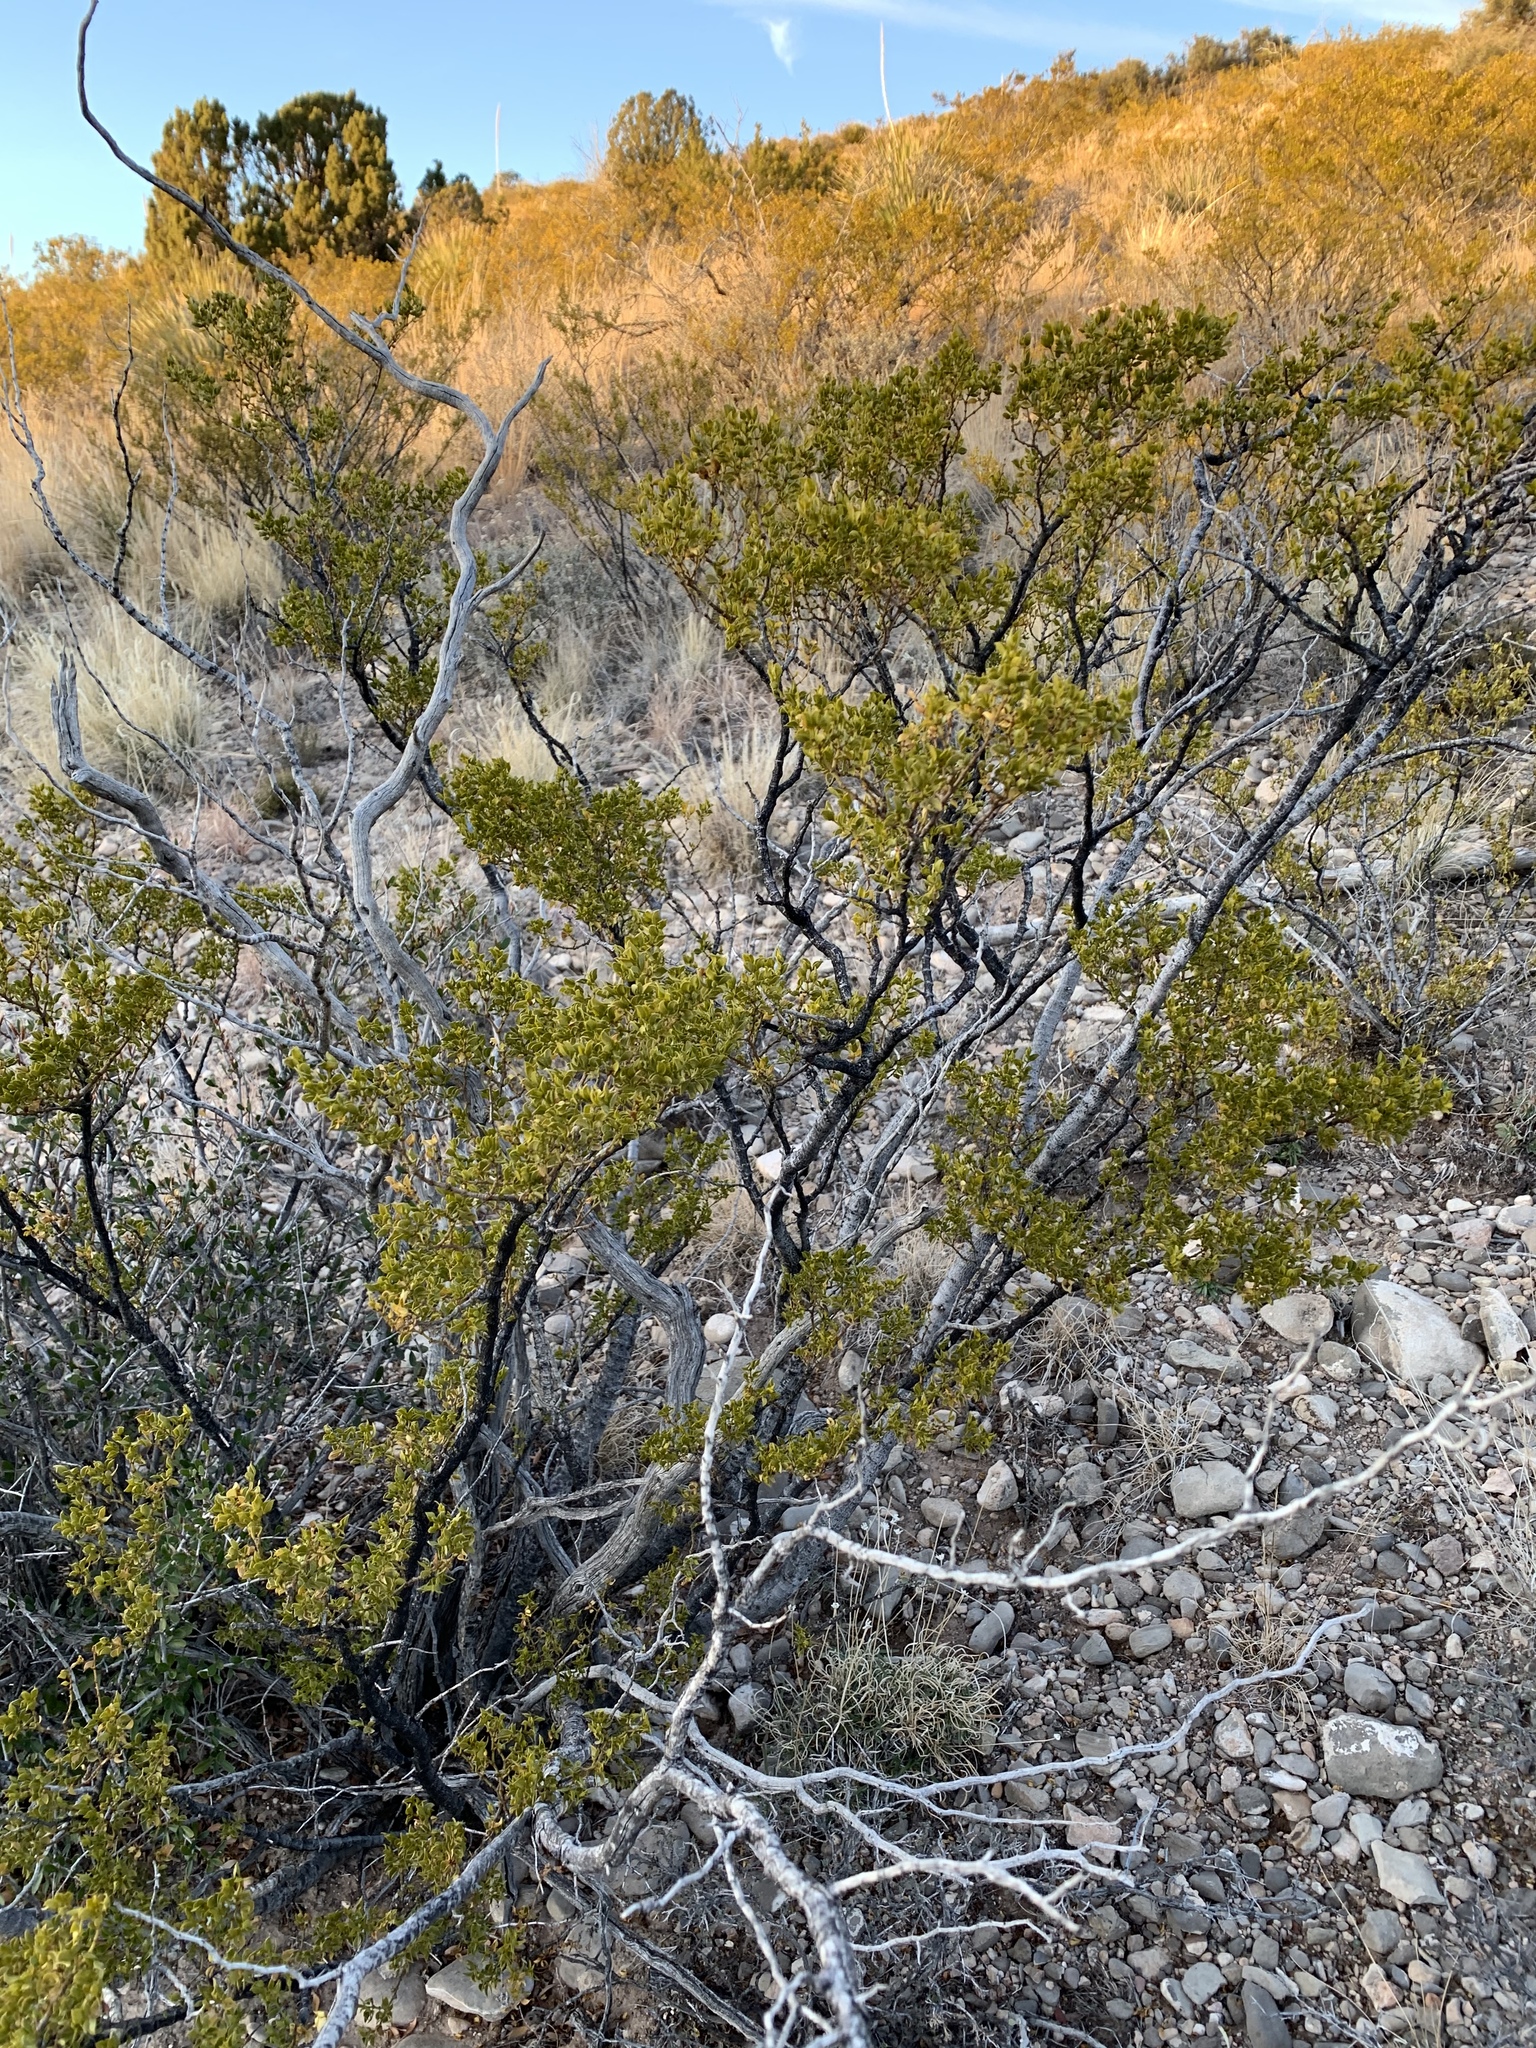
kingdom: Plantae
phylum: Tracheophyta
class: Magnoliopsida
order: Zygophyllales
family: Zygophyllaceae
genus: Larrea
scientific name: Larrea tridentata
